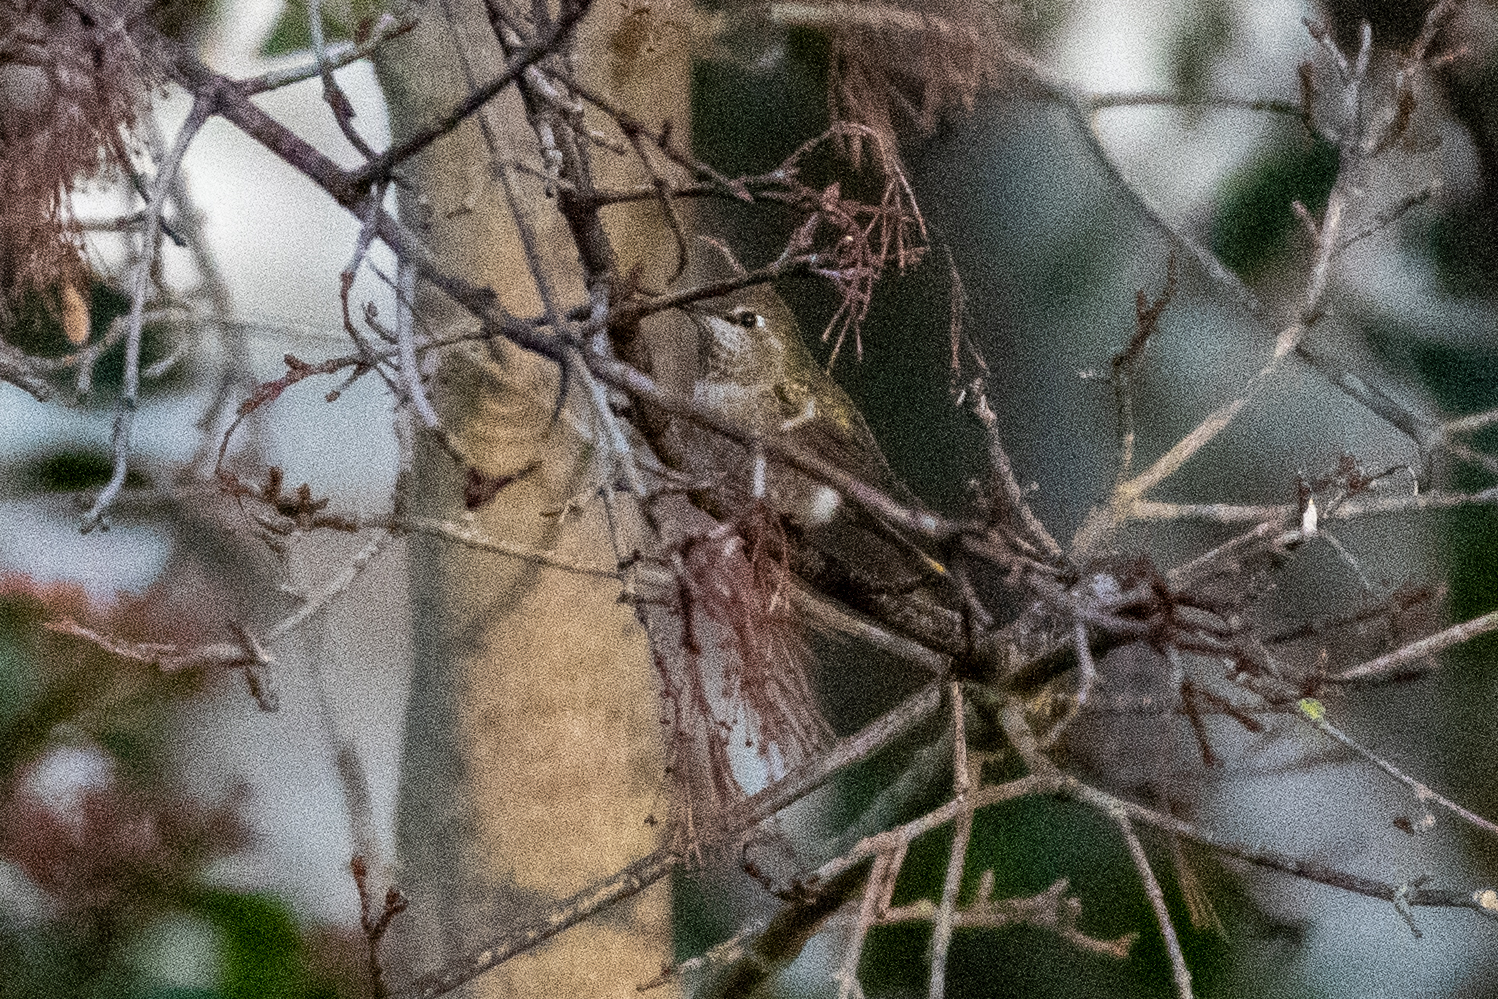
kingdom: Animalia
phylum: Chordata
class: Aves
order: Apodiformes
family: Trochilidae
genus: Calypte
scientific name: Calypte anna
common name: Anna's hummingbird
